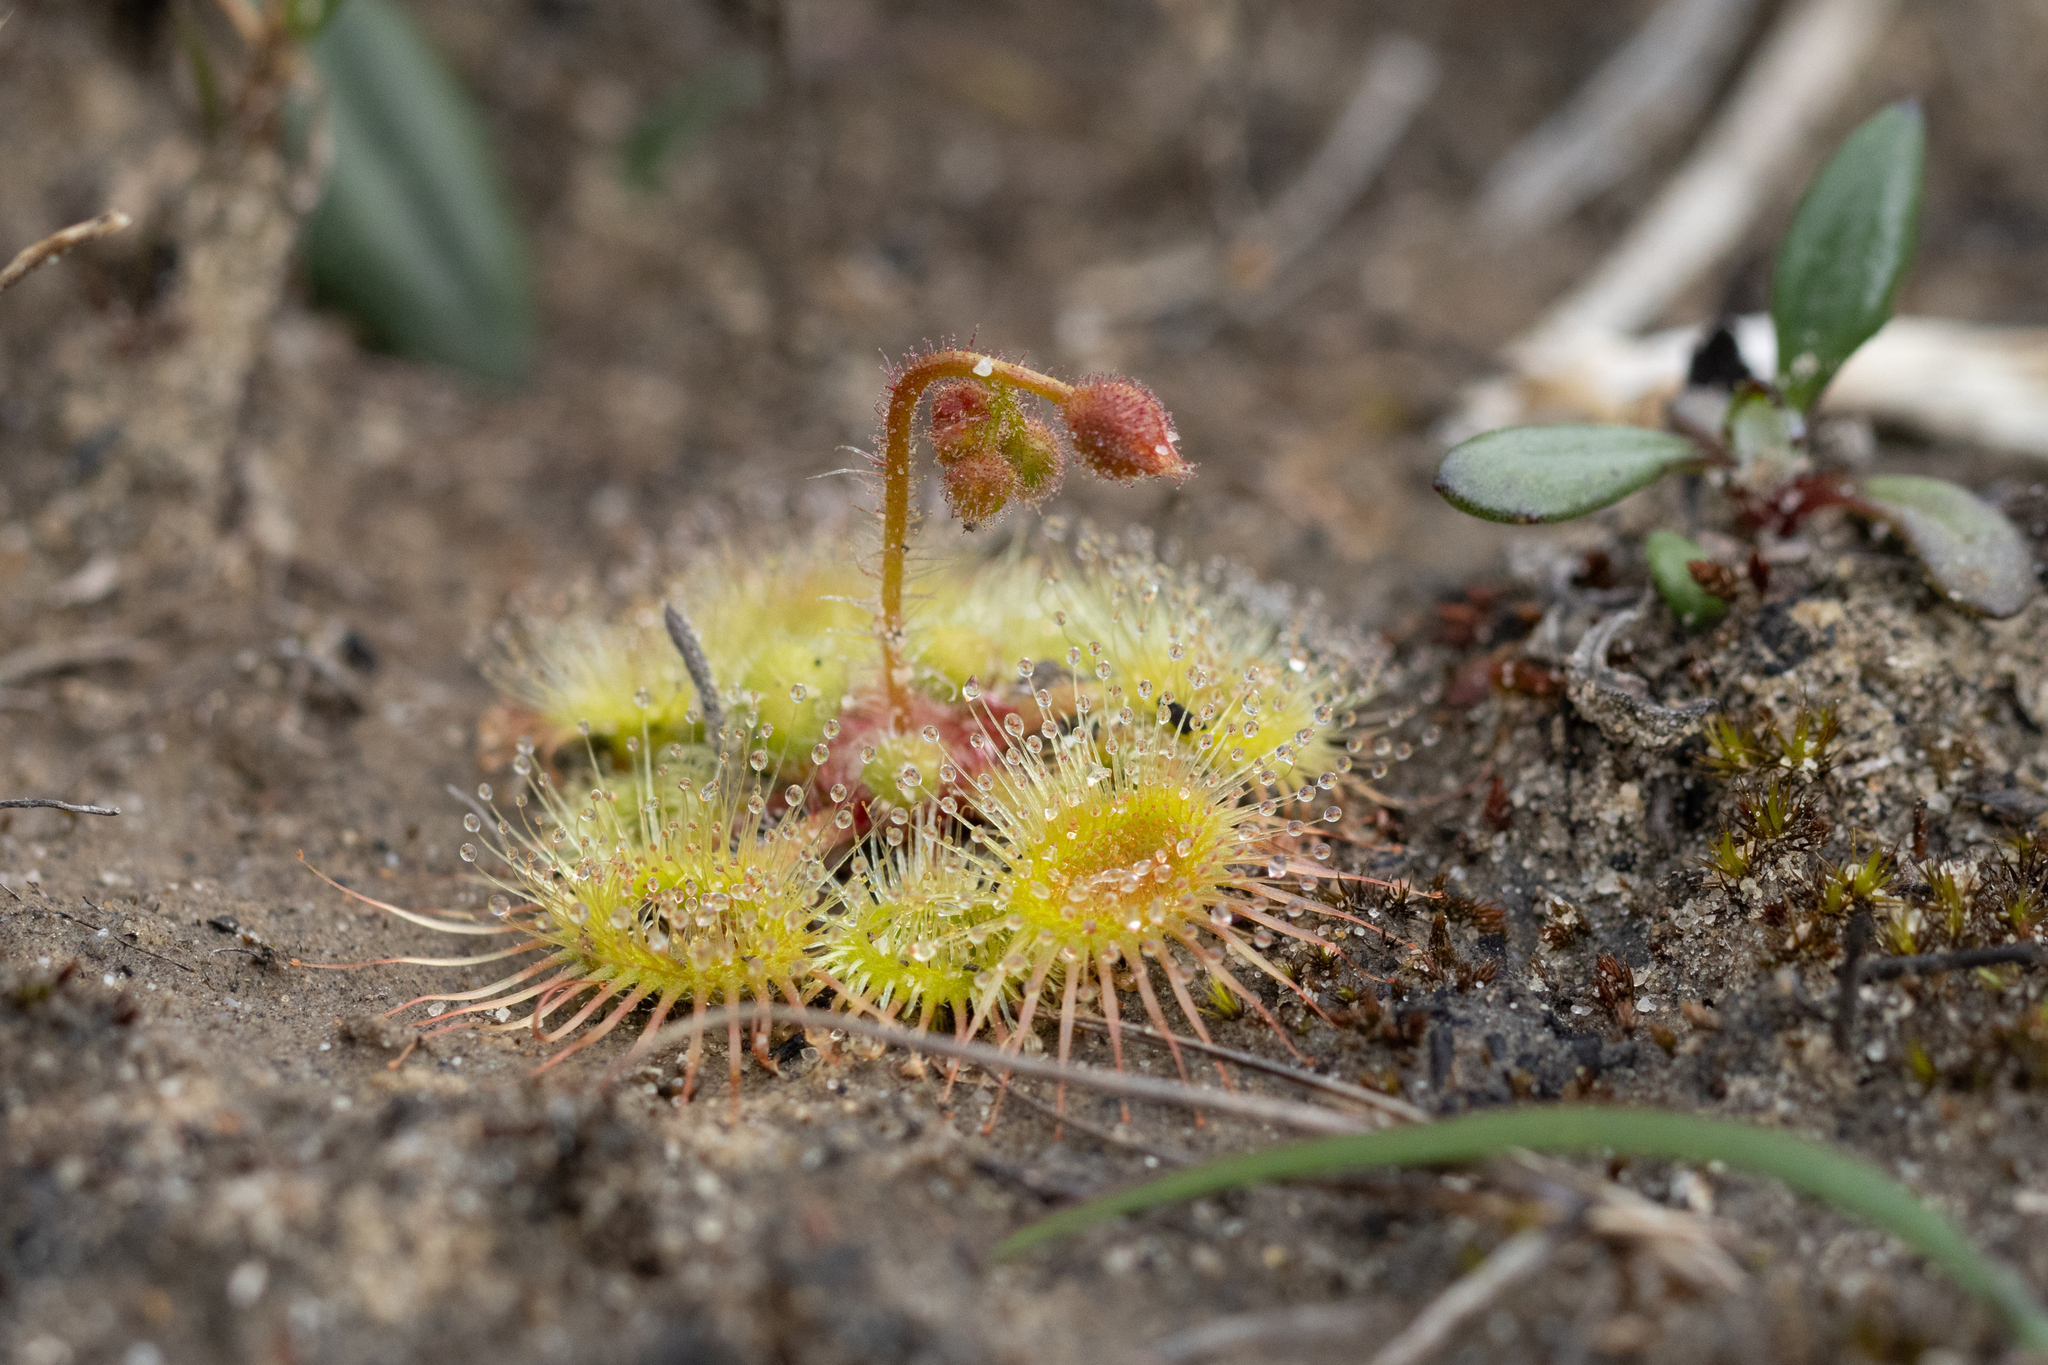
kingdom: Plantae
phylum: Tracheophyta
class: Magnoliopsida
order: Caryophyllales
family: Droseraceae
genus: Drosera
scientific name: Drosera glanduligera
